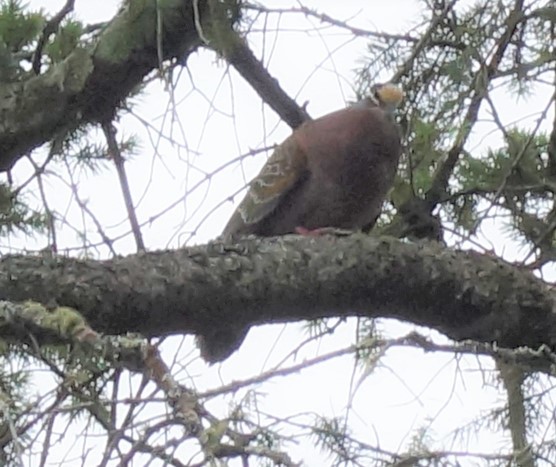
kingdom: Animalia
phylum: Chordata
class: Aves
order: Columbiformes
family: Columbidae
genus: Phaps
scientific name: Phaps chalcoptera
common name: Common bronzewing
